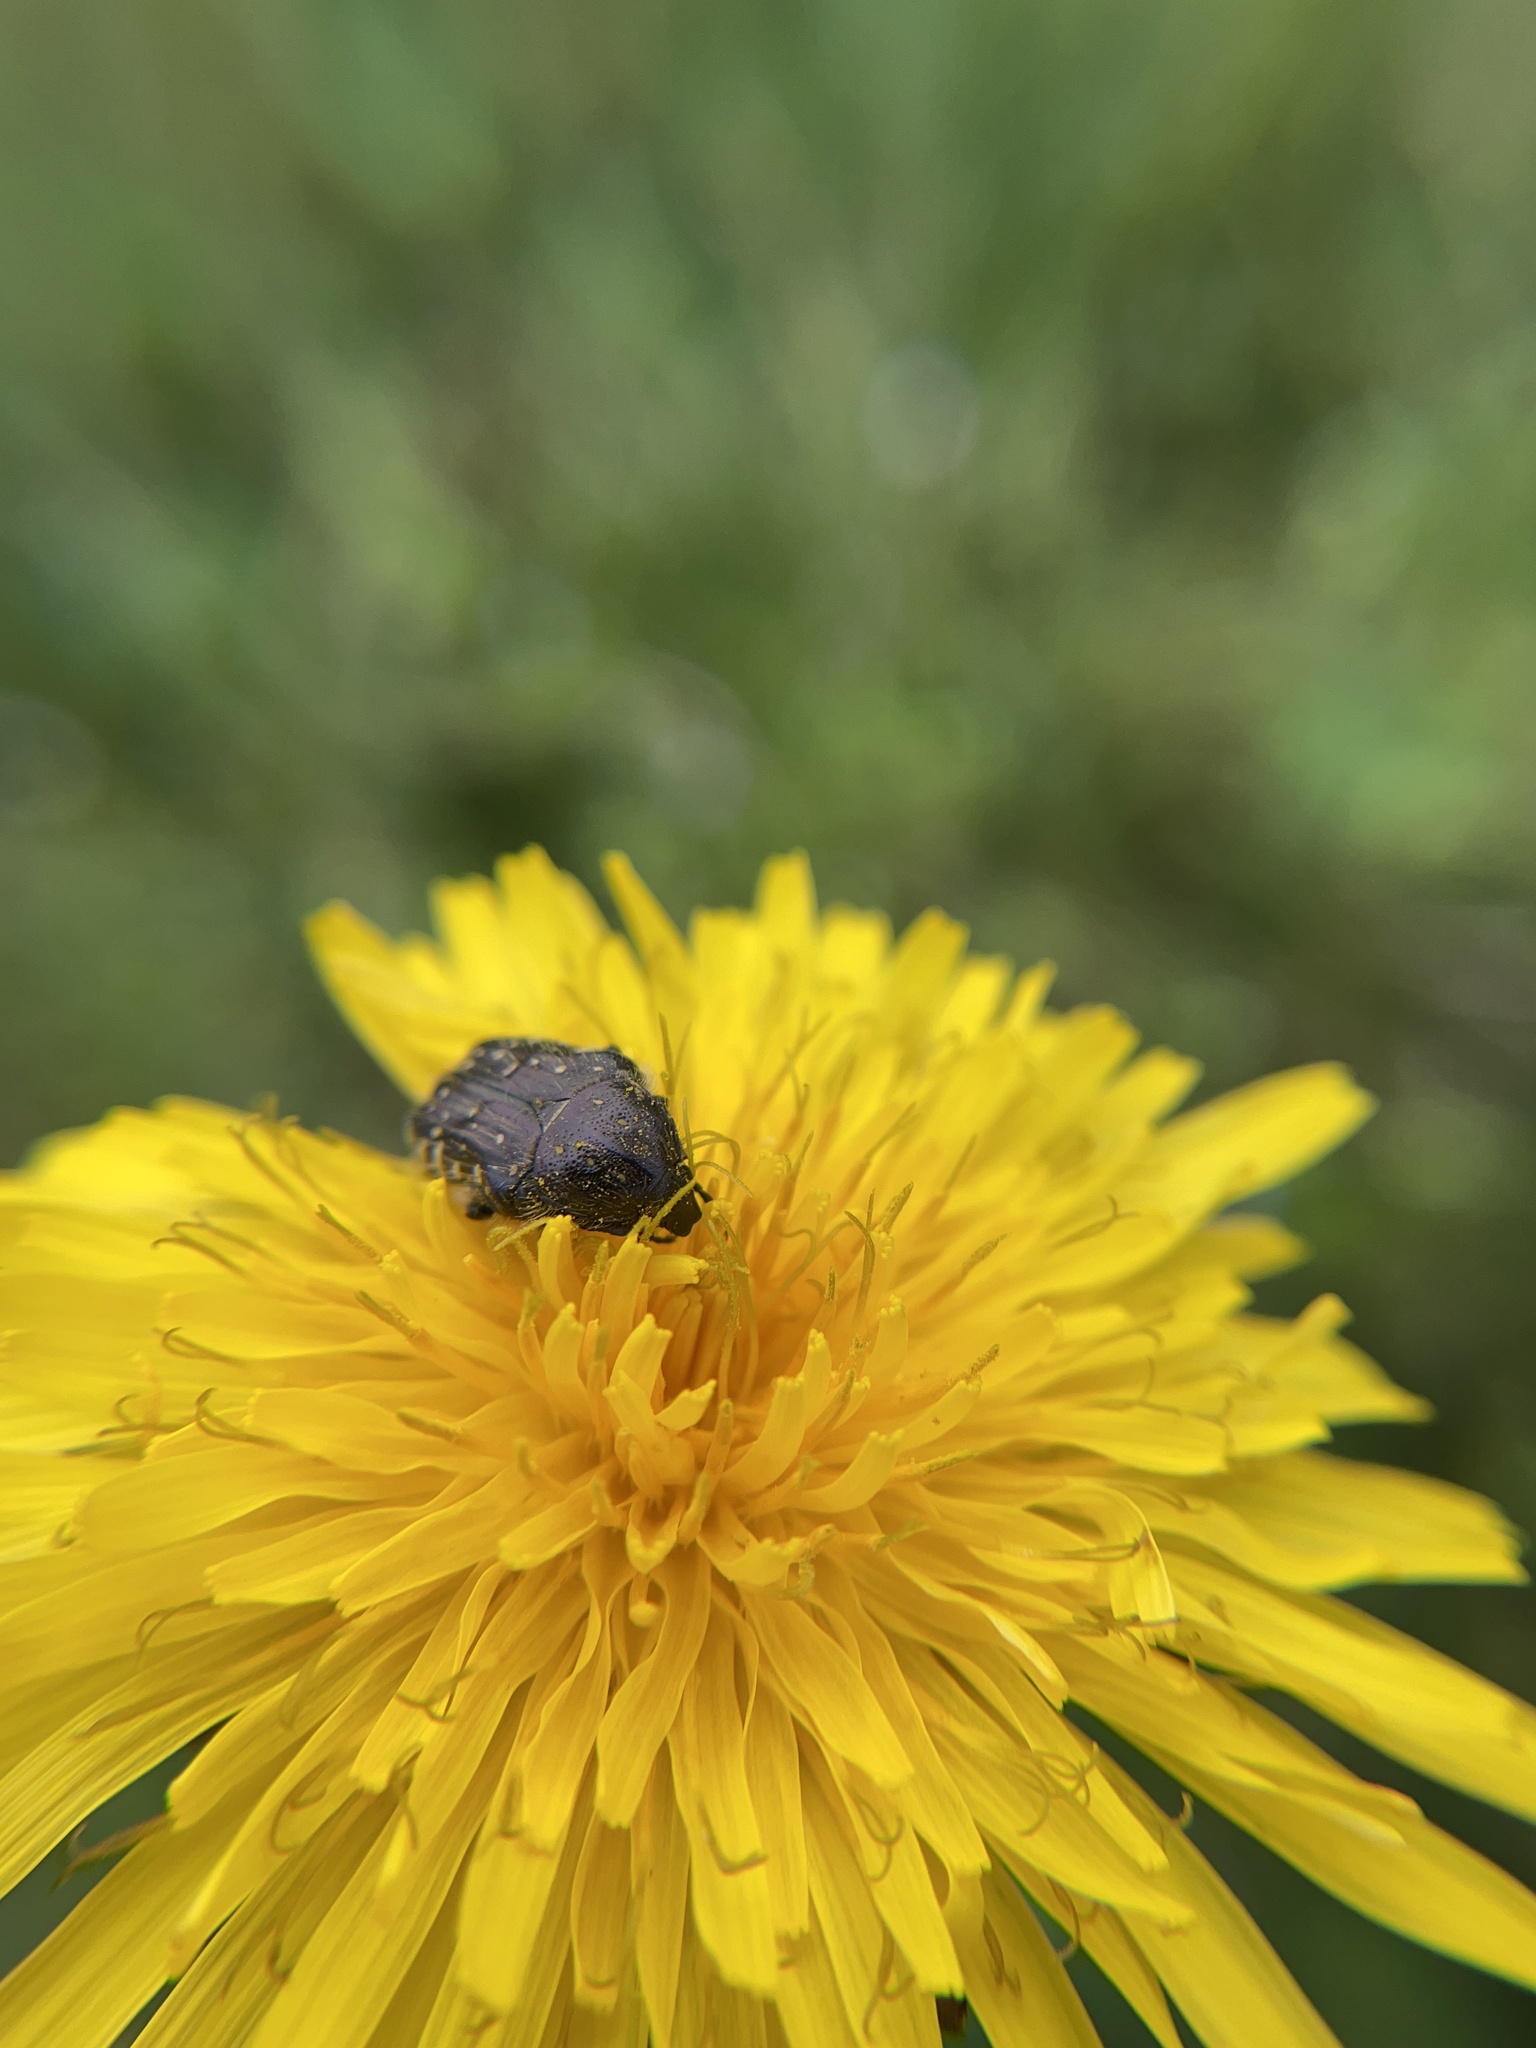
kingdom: Animalia
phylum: Arthropoda
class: Insecta
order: Coleoptera
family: Scarabaeidae
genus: Oxythyrea
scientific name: Oxythyrea funesta
